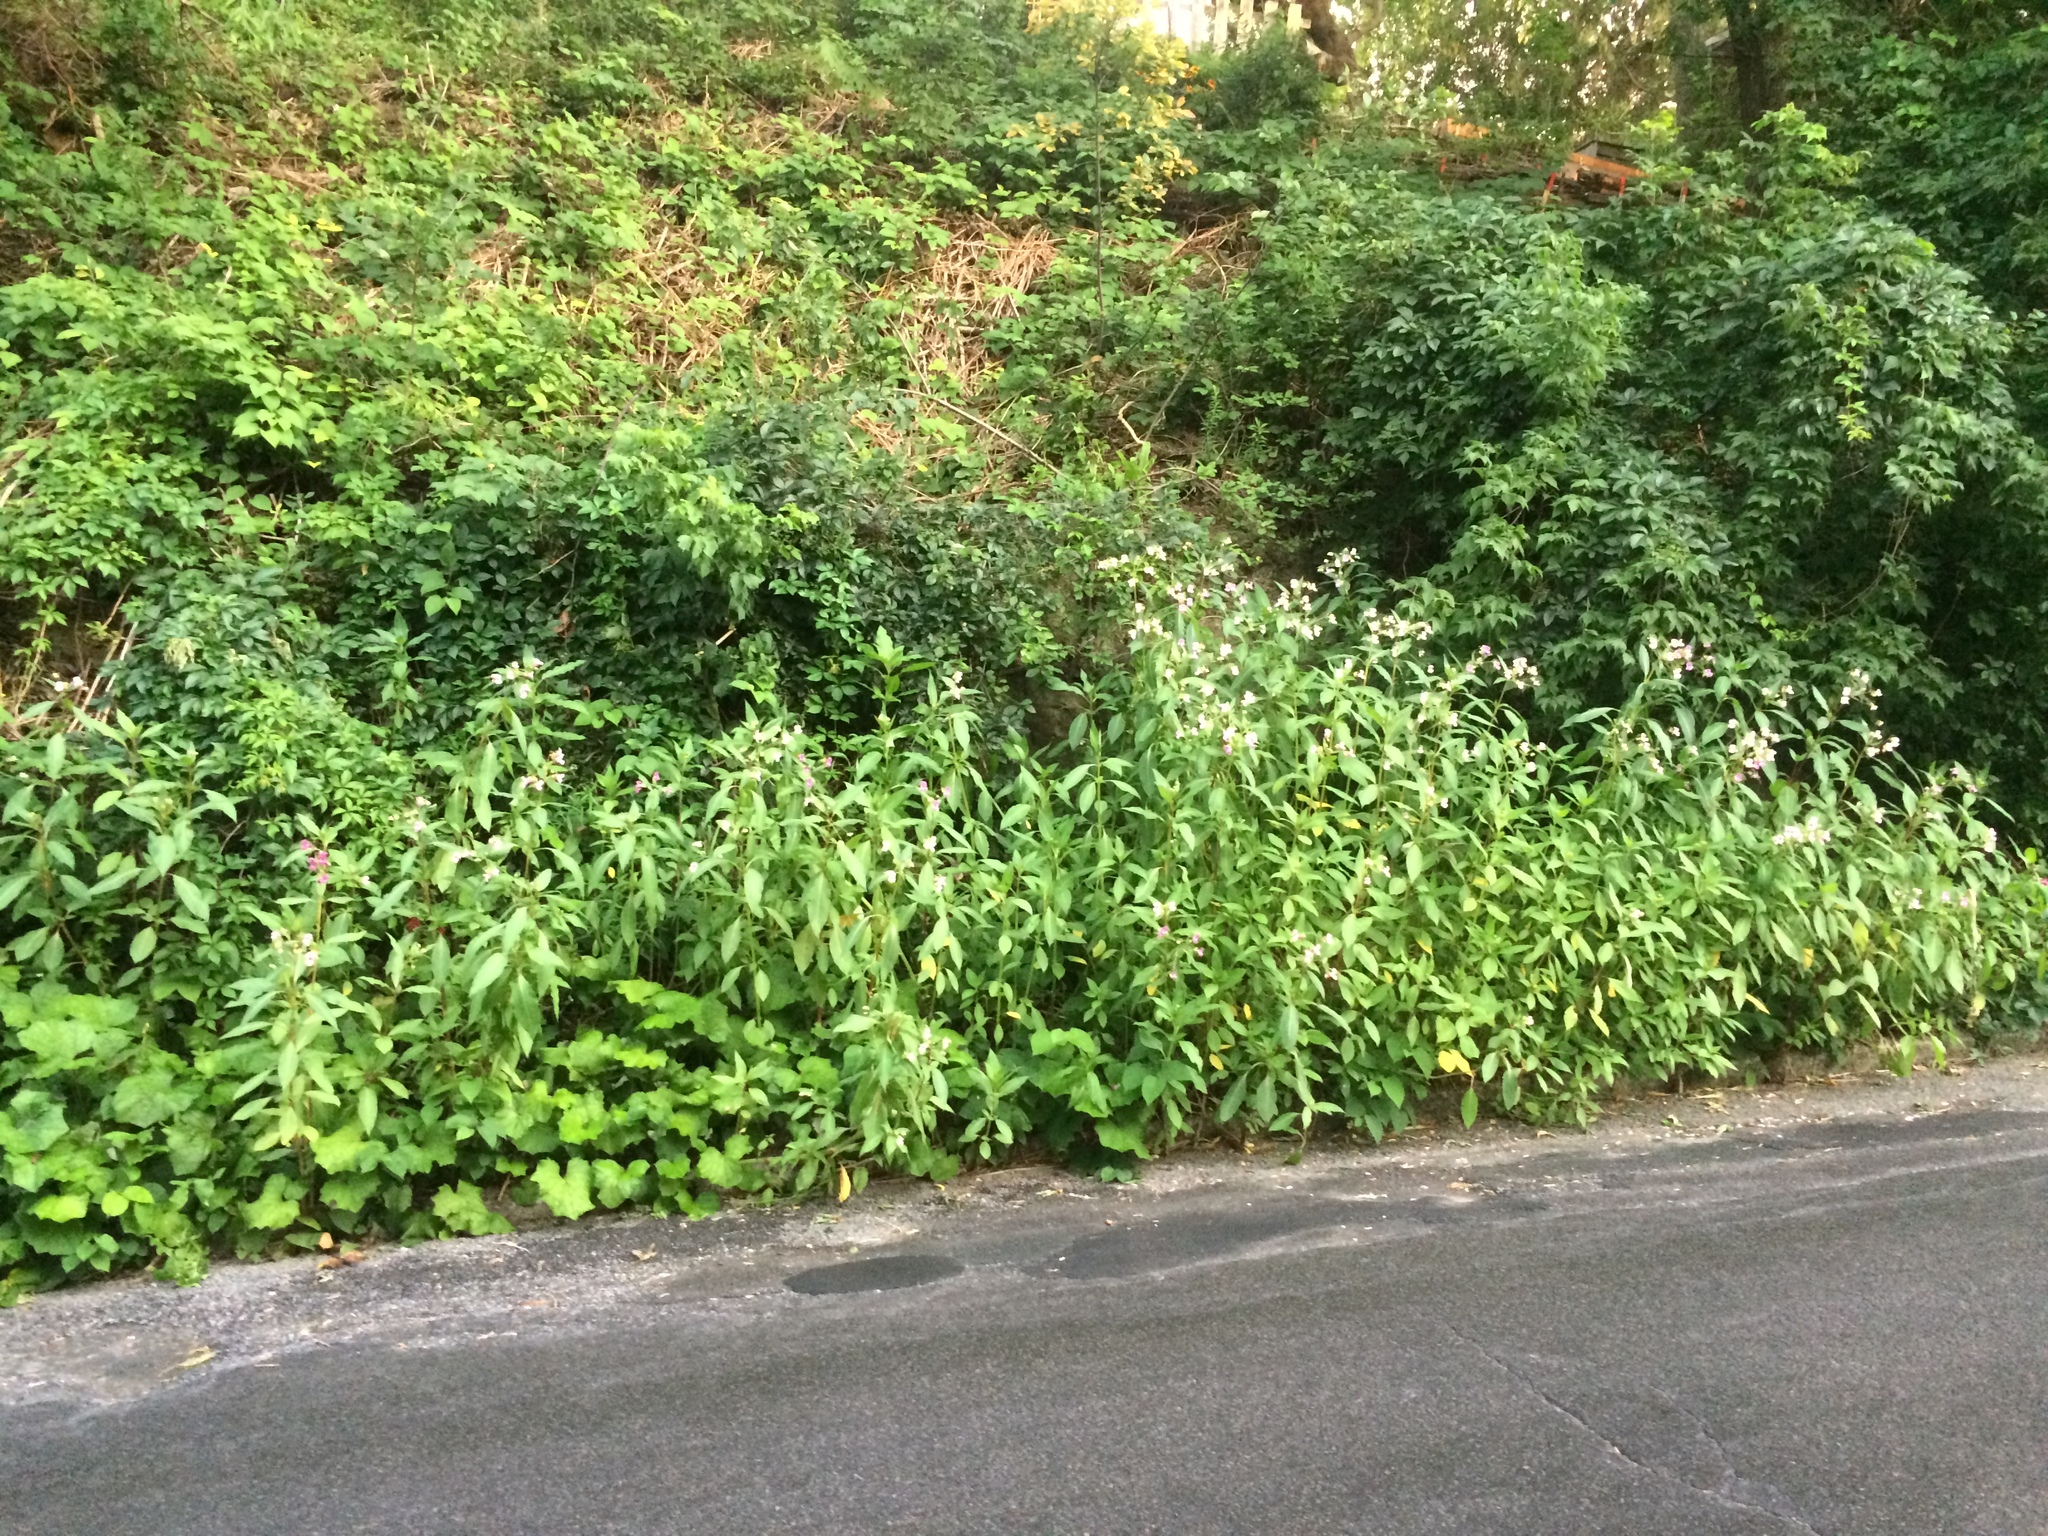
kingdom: Plantae
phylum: Tracheophyta
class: Magnoliopsida
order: Ericales
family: Balsaminaceae
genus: Impatiens
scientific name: Impatiens glandulifera
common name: Himalayan balsam
